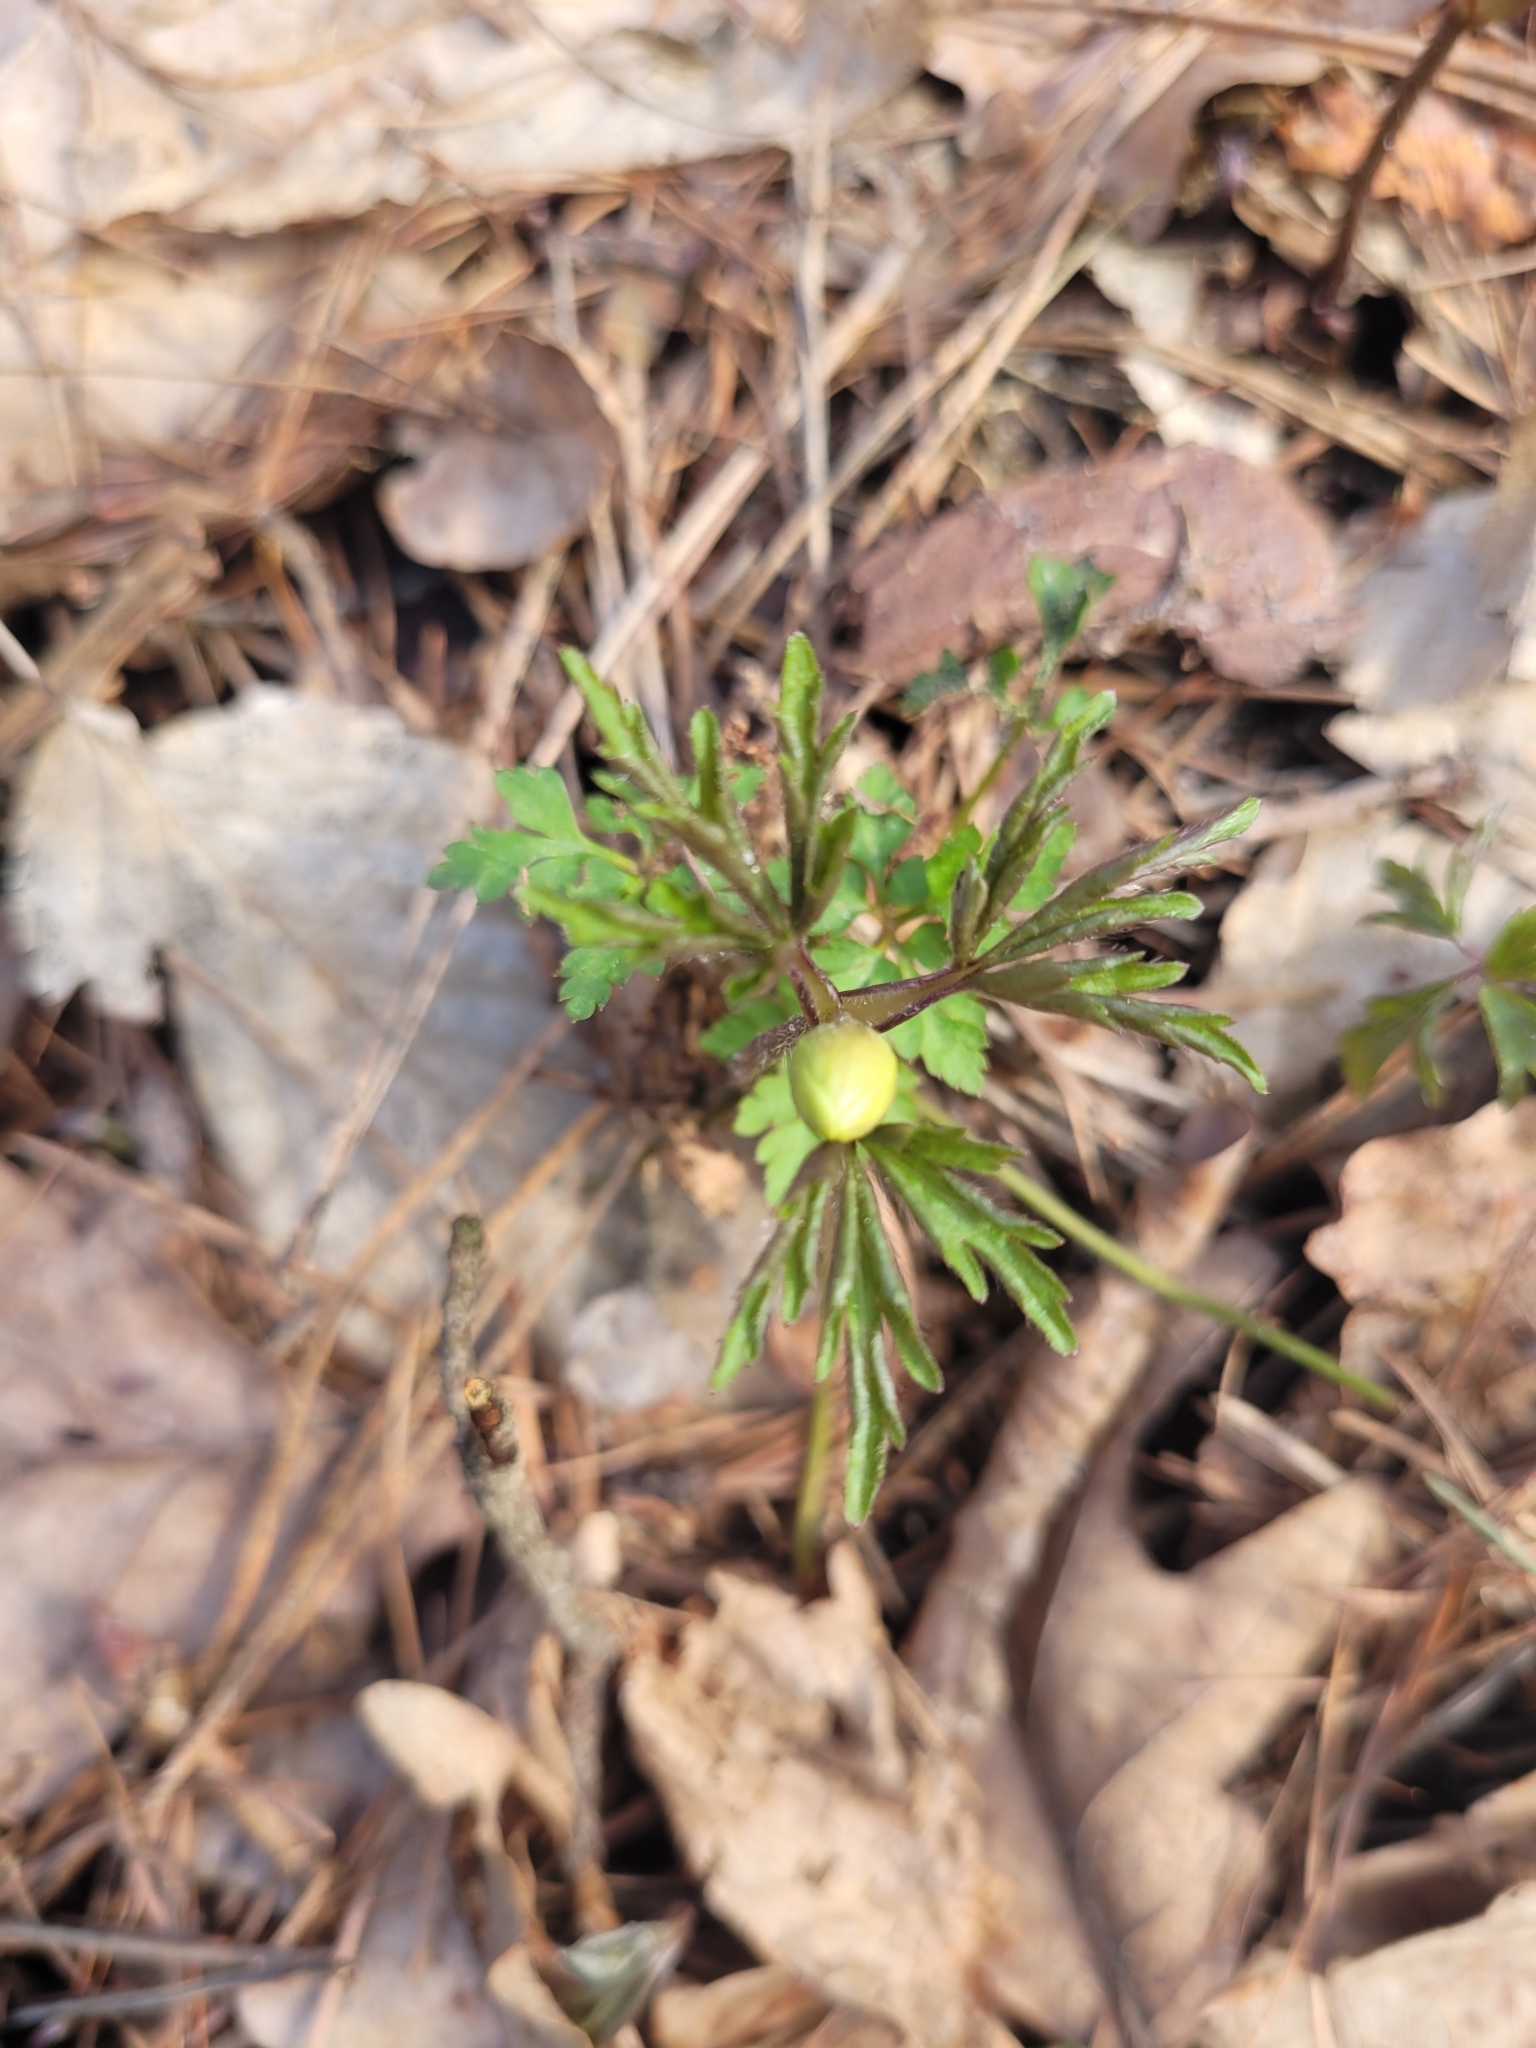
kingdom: Plantae
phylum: Tracheophyta
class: Magnoliopsida
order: Ranunculales
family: Ranunculaceae
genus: Anemone
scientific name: Anemone nemorosa
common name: Wood anemone
